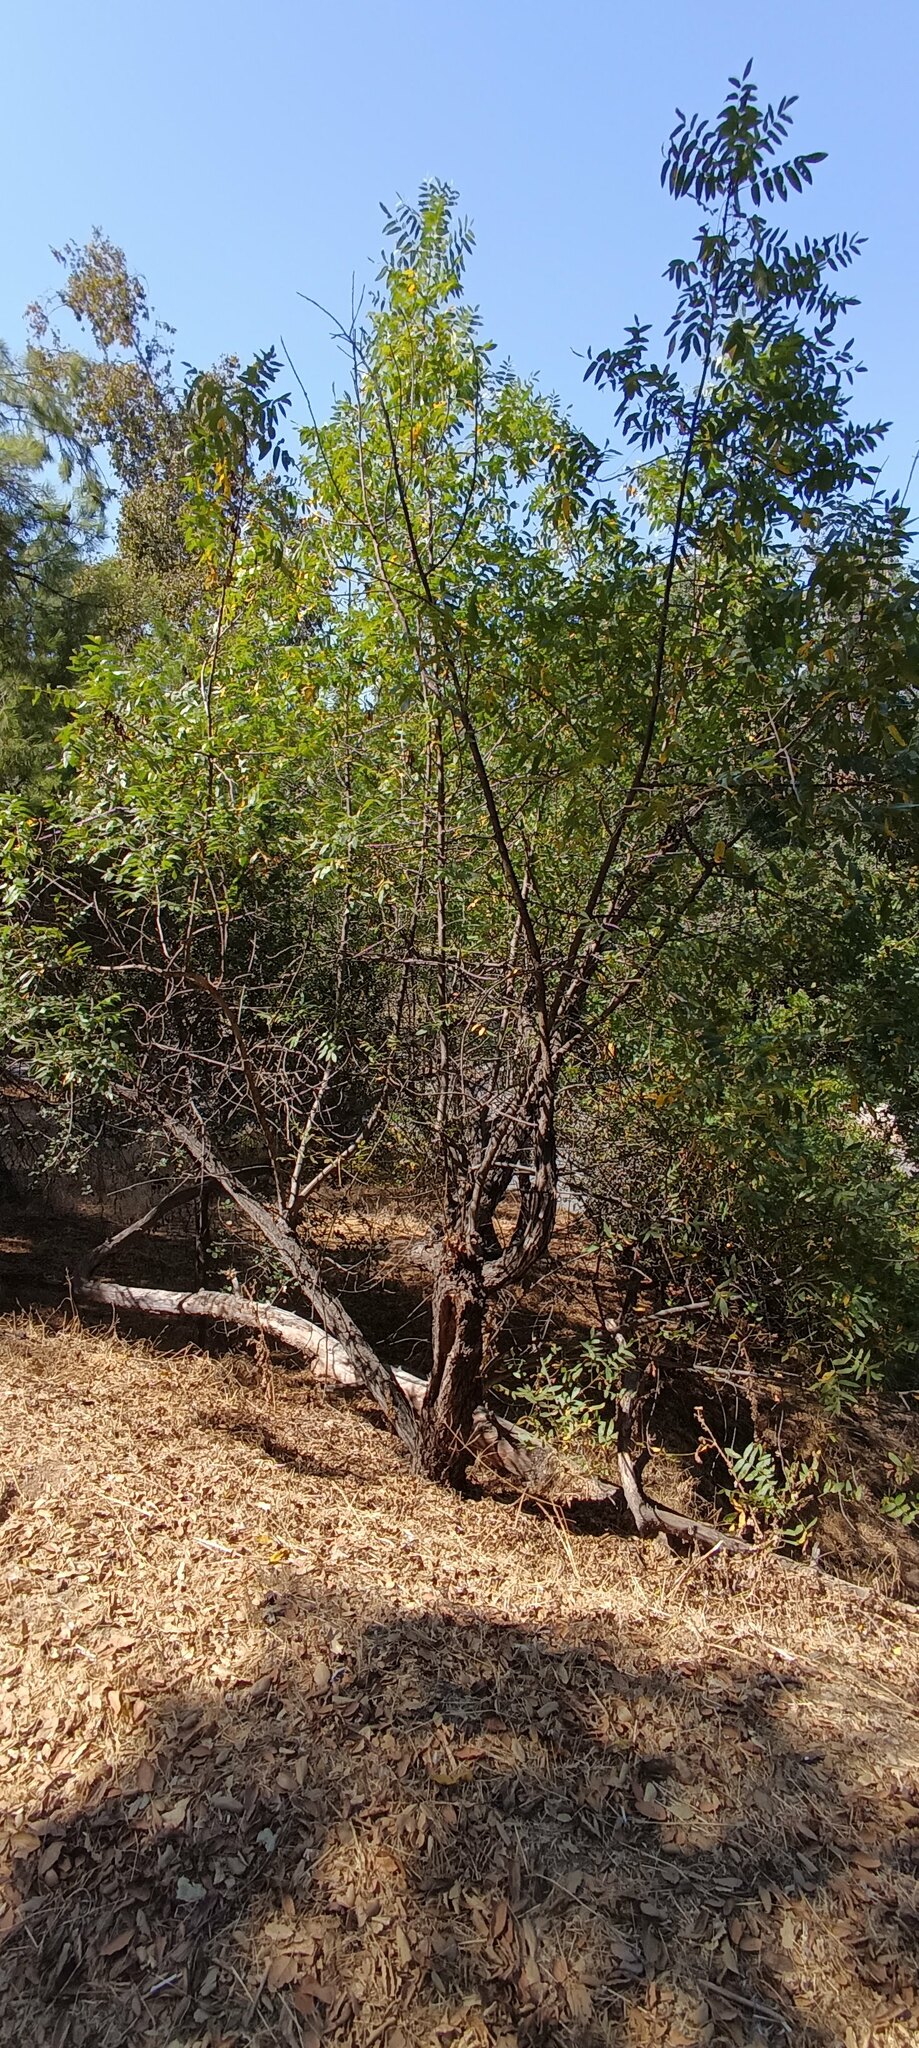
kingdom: Plantae
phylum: Tracheophyta
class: Magnoliopsida
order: Fagales
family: Juglandaceae
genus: Juglans
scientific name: Juglans californica
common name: Southern california black walnut
